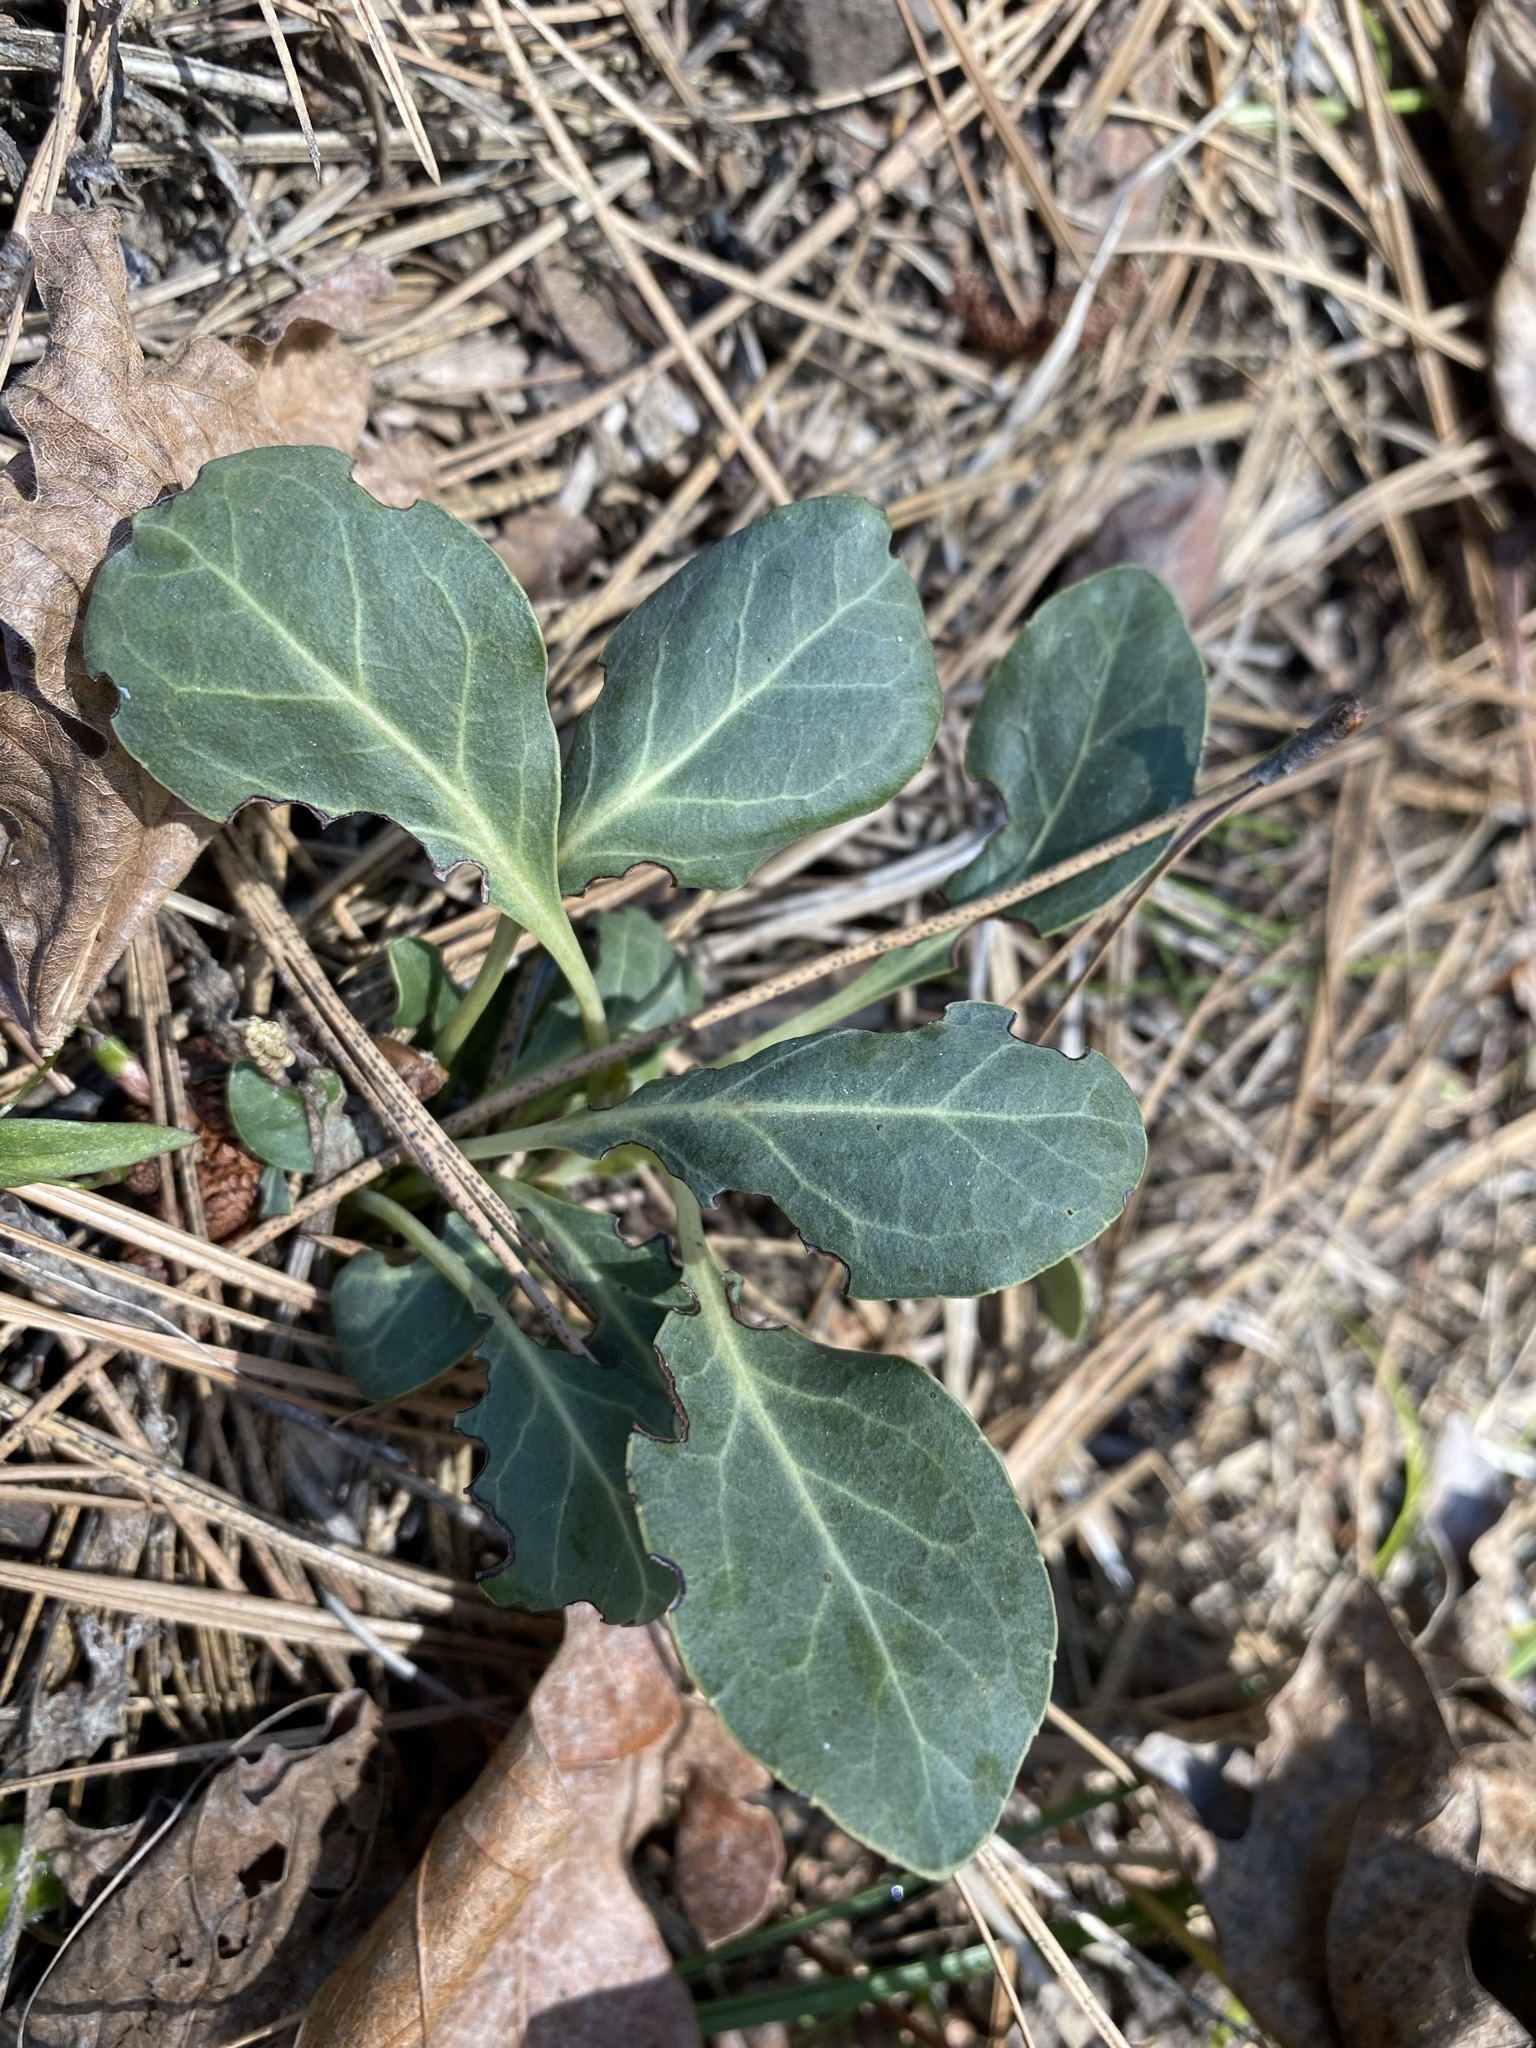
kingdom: Plantae
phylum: Tracheophyta
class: Magnoliopsida
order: Ericales
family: Ericaceae
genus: Pyrola
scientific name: Pyrola dentata
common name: Tooth-leaved wintergreen
